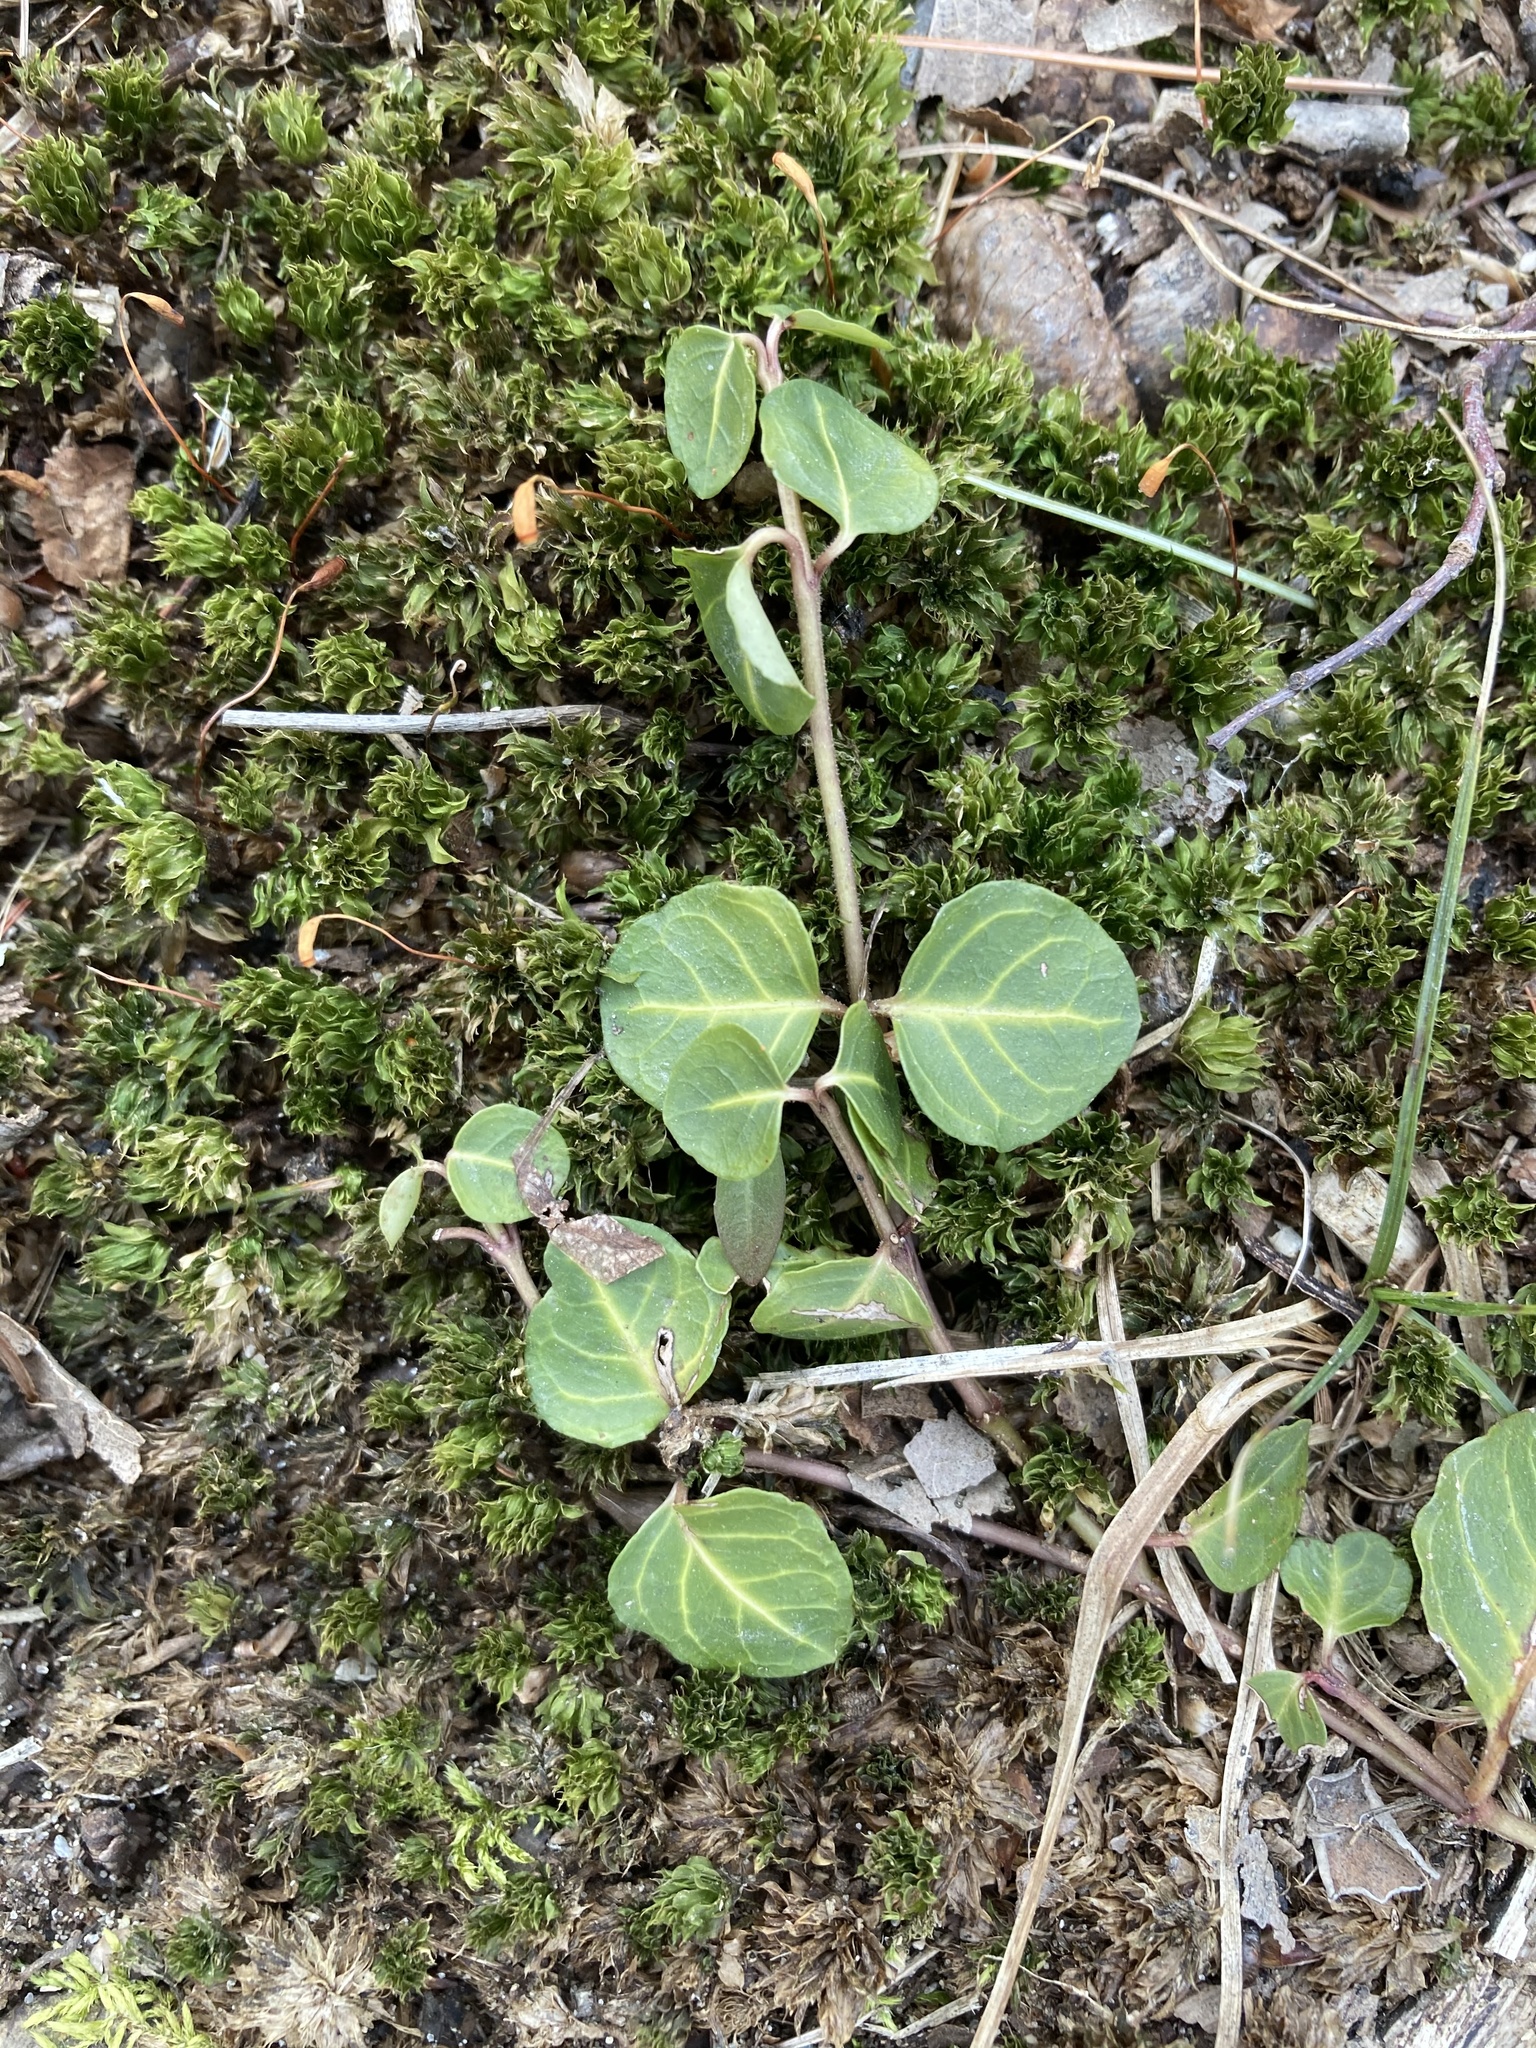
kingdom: Plantae
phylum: Tracheophyta
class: Magnoliopsida
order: Gentianales
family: Rubiaceae
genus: Mitchella
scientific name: Mitchella repens
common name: Partridge-berry
